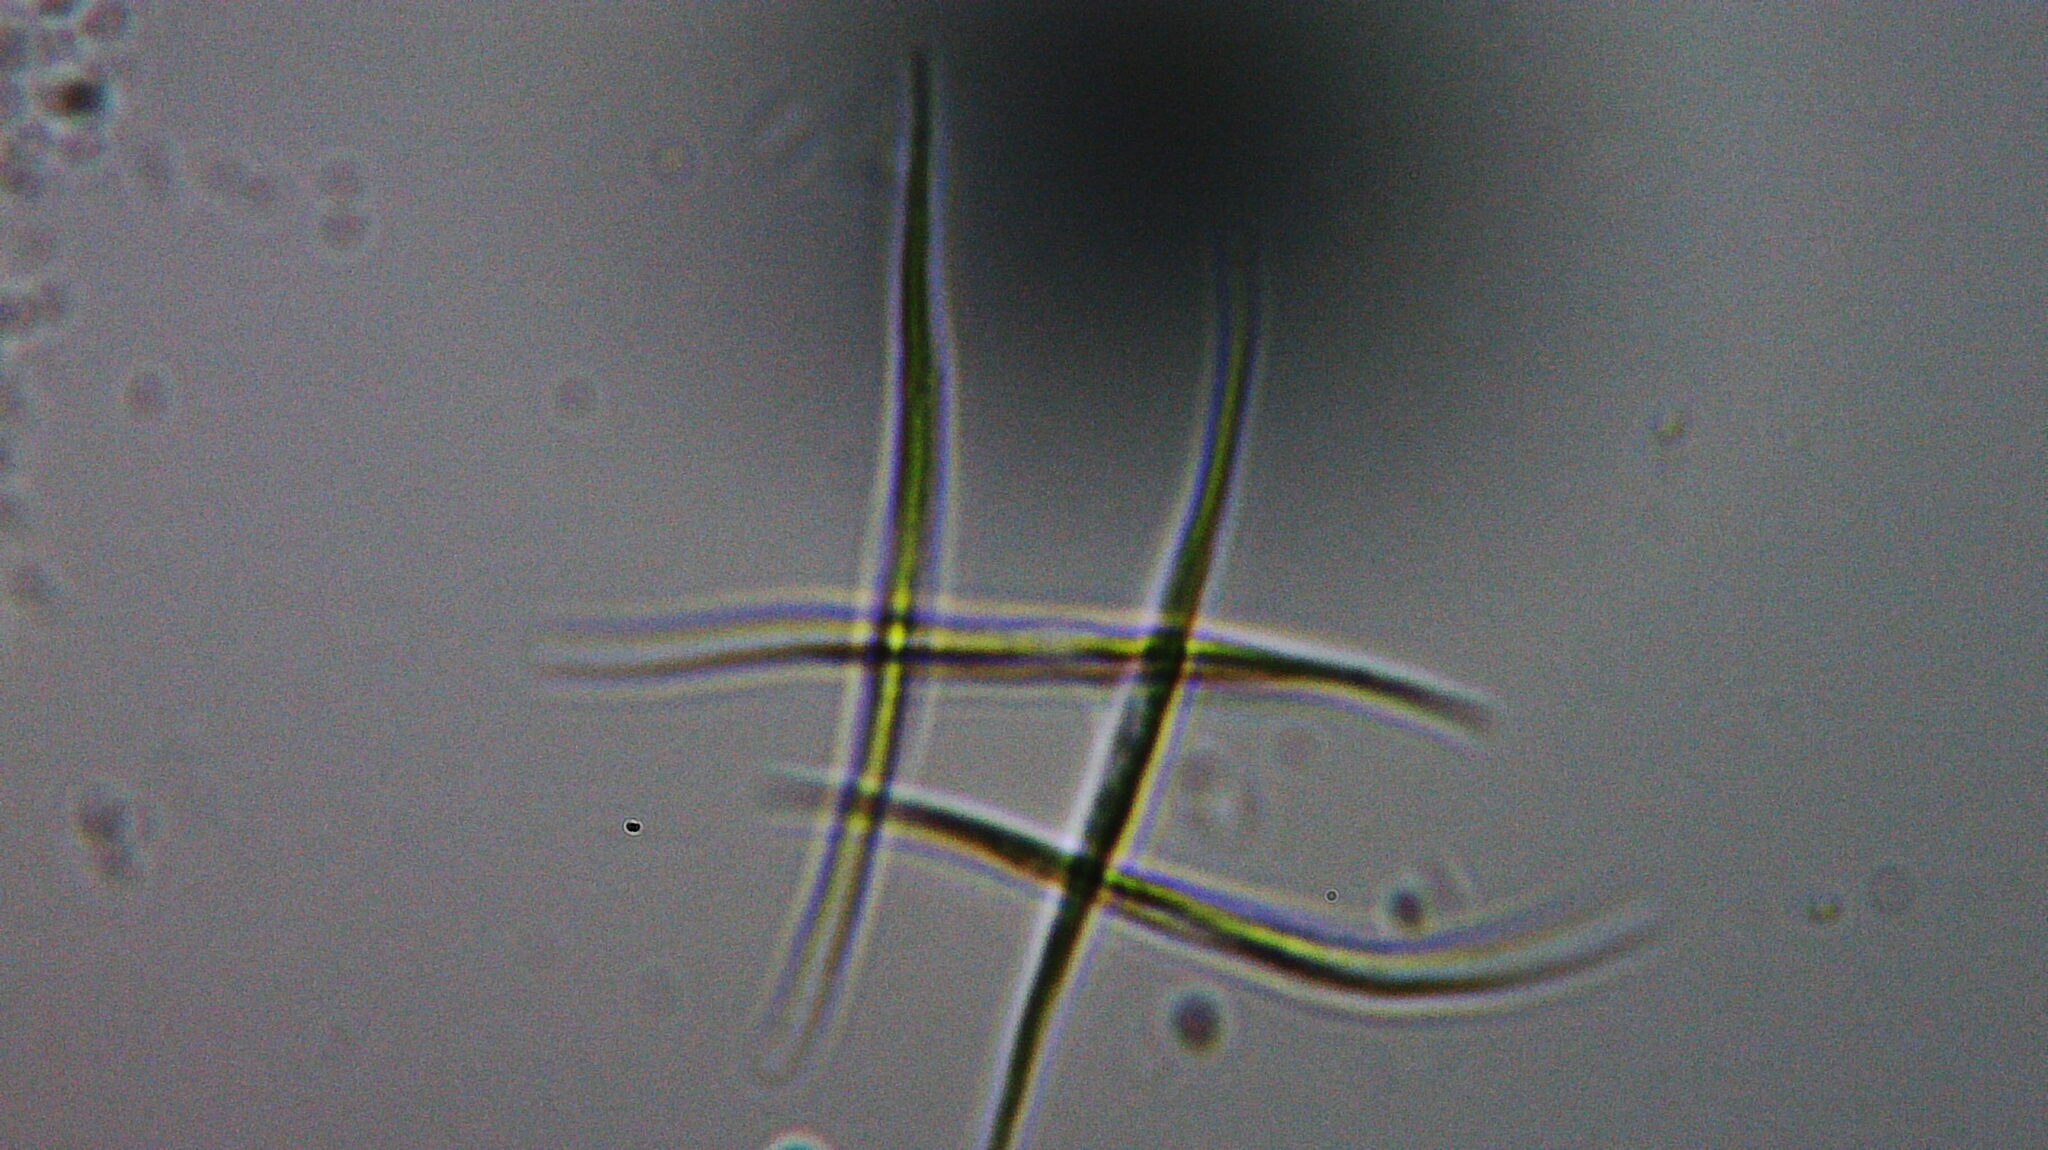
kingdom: Plantae
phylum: Chlorophyta
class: Chlorophyceae
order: Sphaeropleales
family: Selenastraceae
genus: Ankistrodesmus
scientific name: Ankistrodesmus fusiformis
